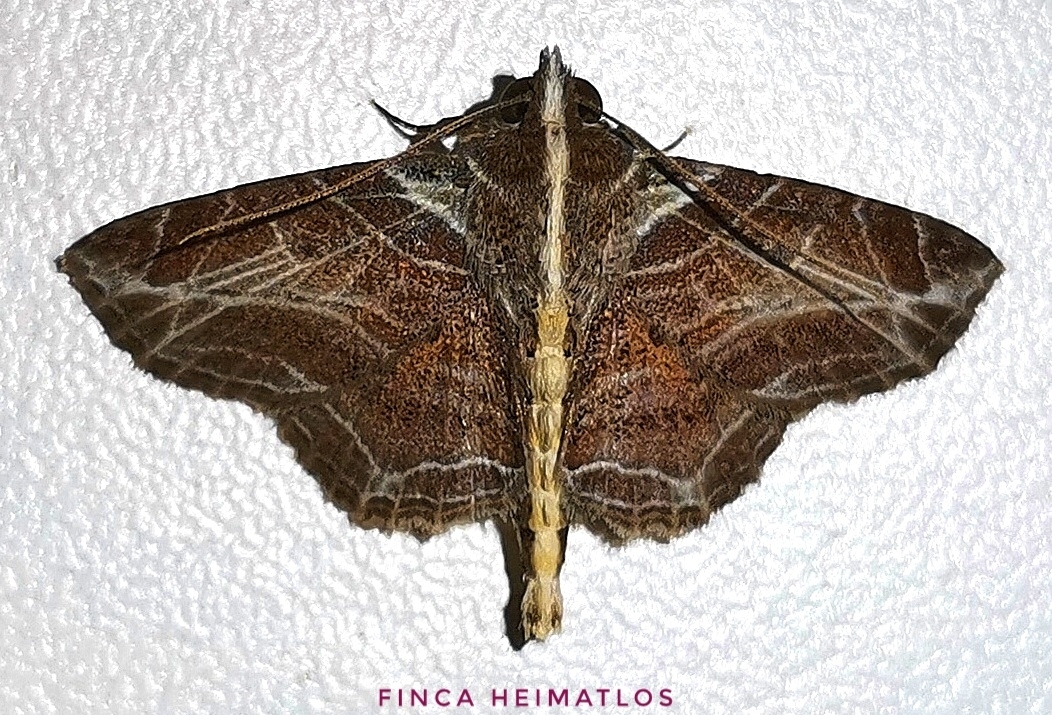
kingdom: Animalia
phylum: Arthropoda
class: Insecta
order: Lepidoptera
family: Erebidae
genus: Dolichosomastis
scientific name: Dolichosomastis leucogrammica
